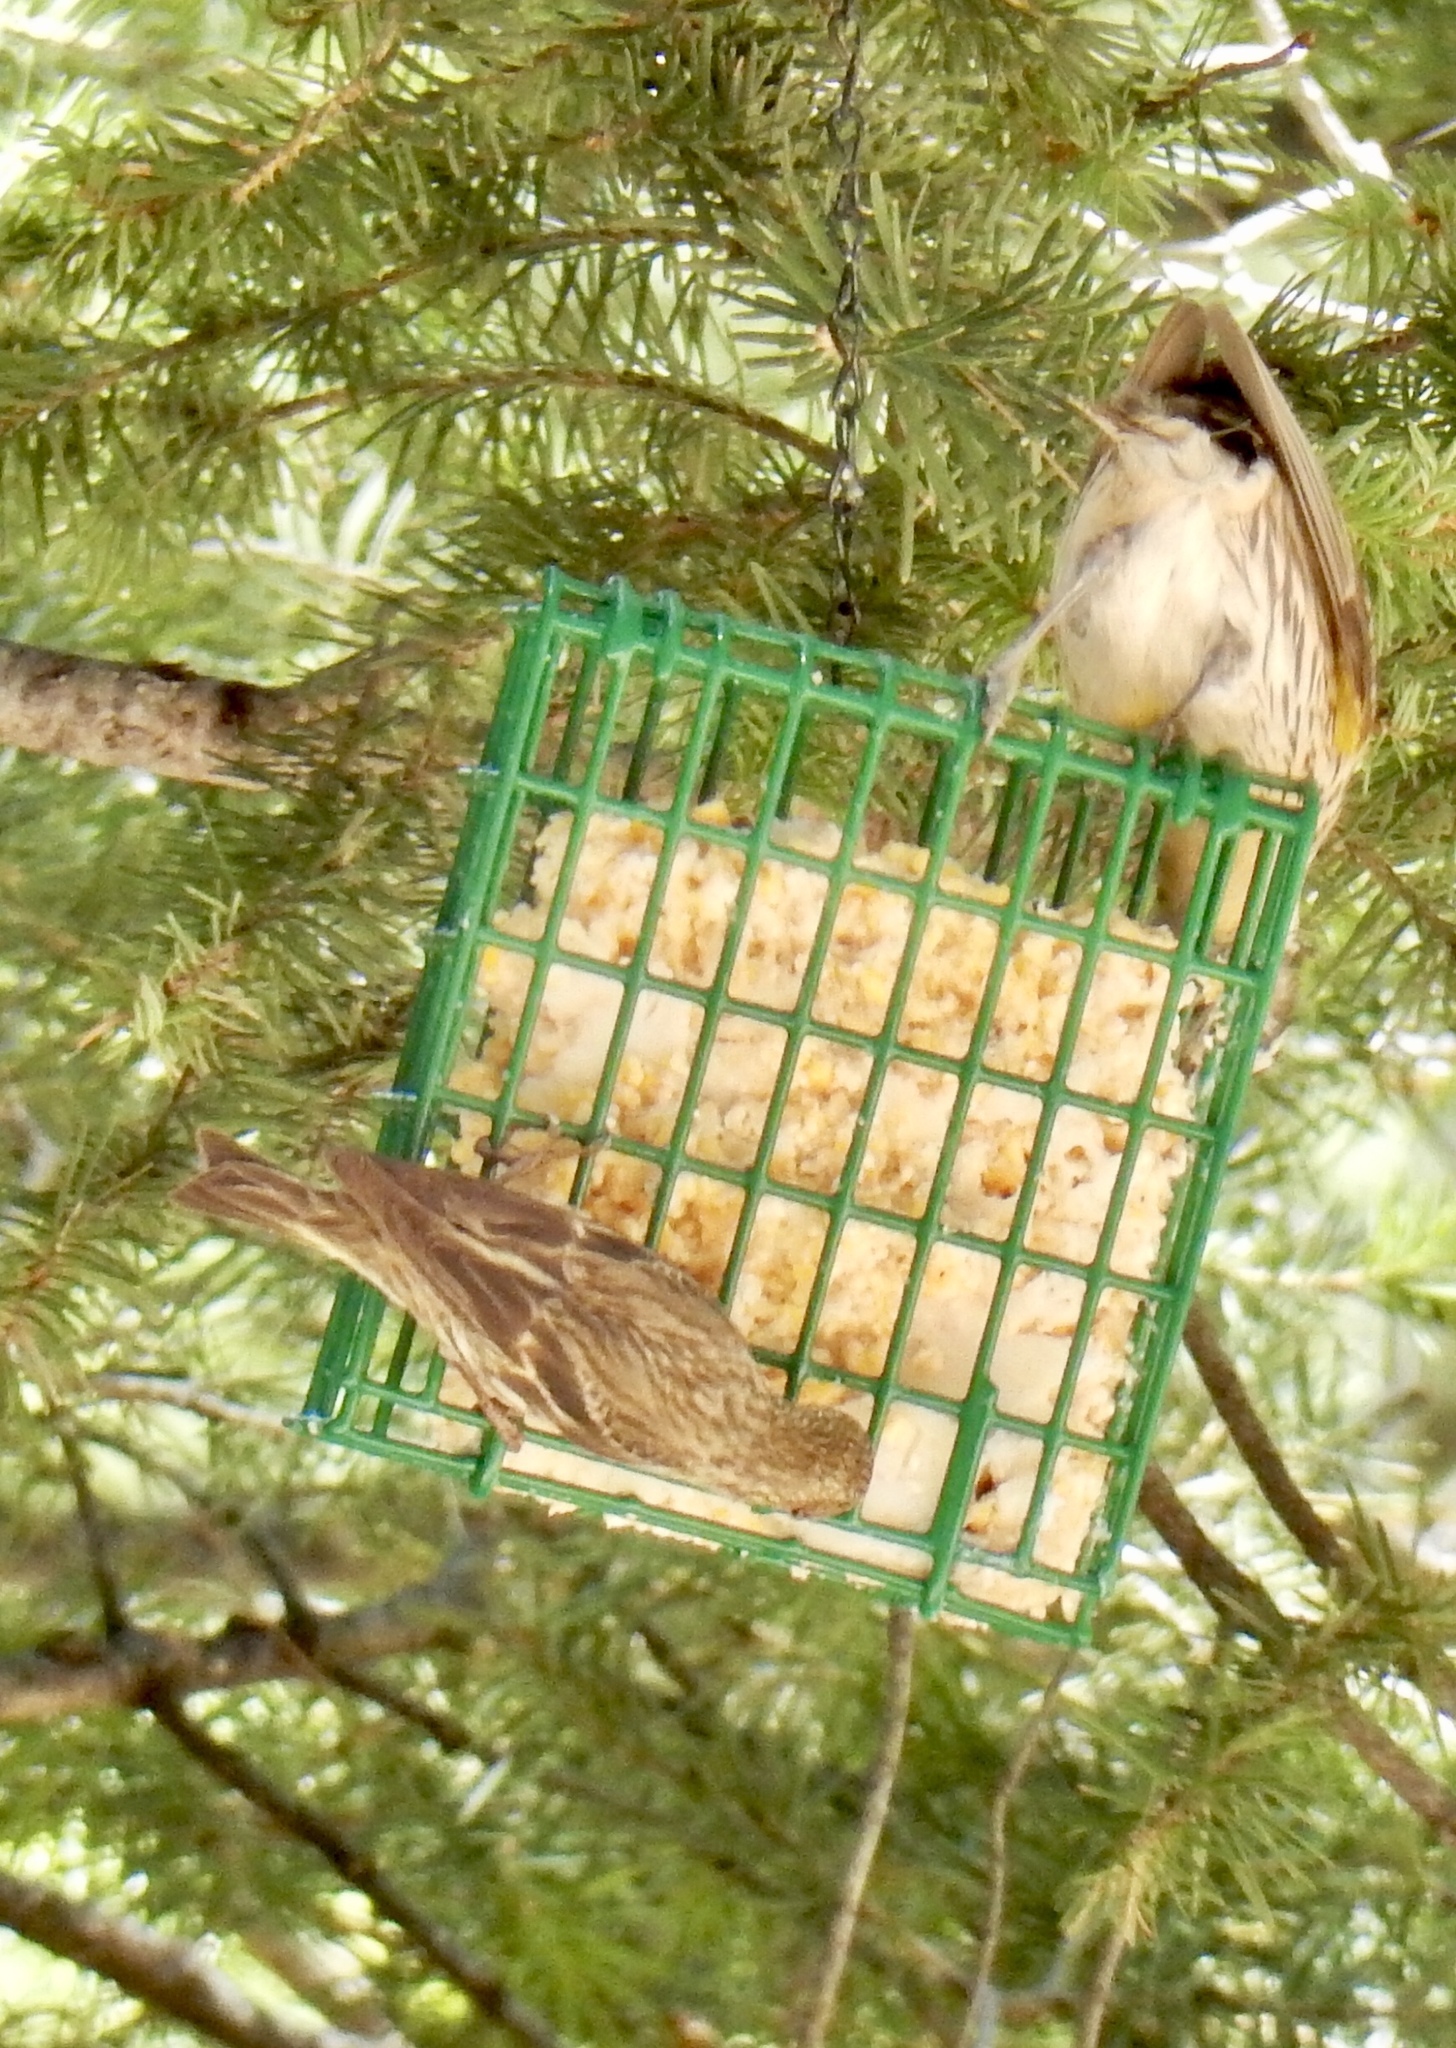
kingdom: Animalia
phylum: Chordata
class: Aves
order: Passeriformes
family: Fringillidae
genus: Spinus
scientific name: Spinus pinus
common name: Pine siskin
